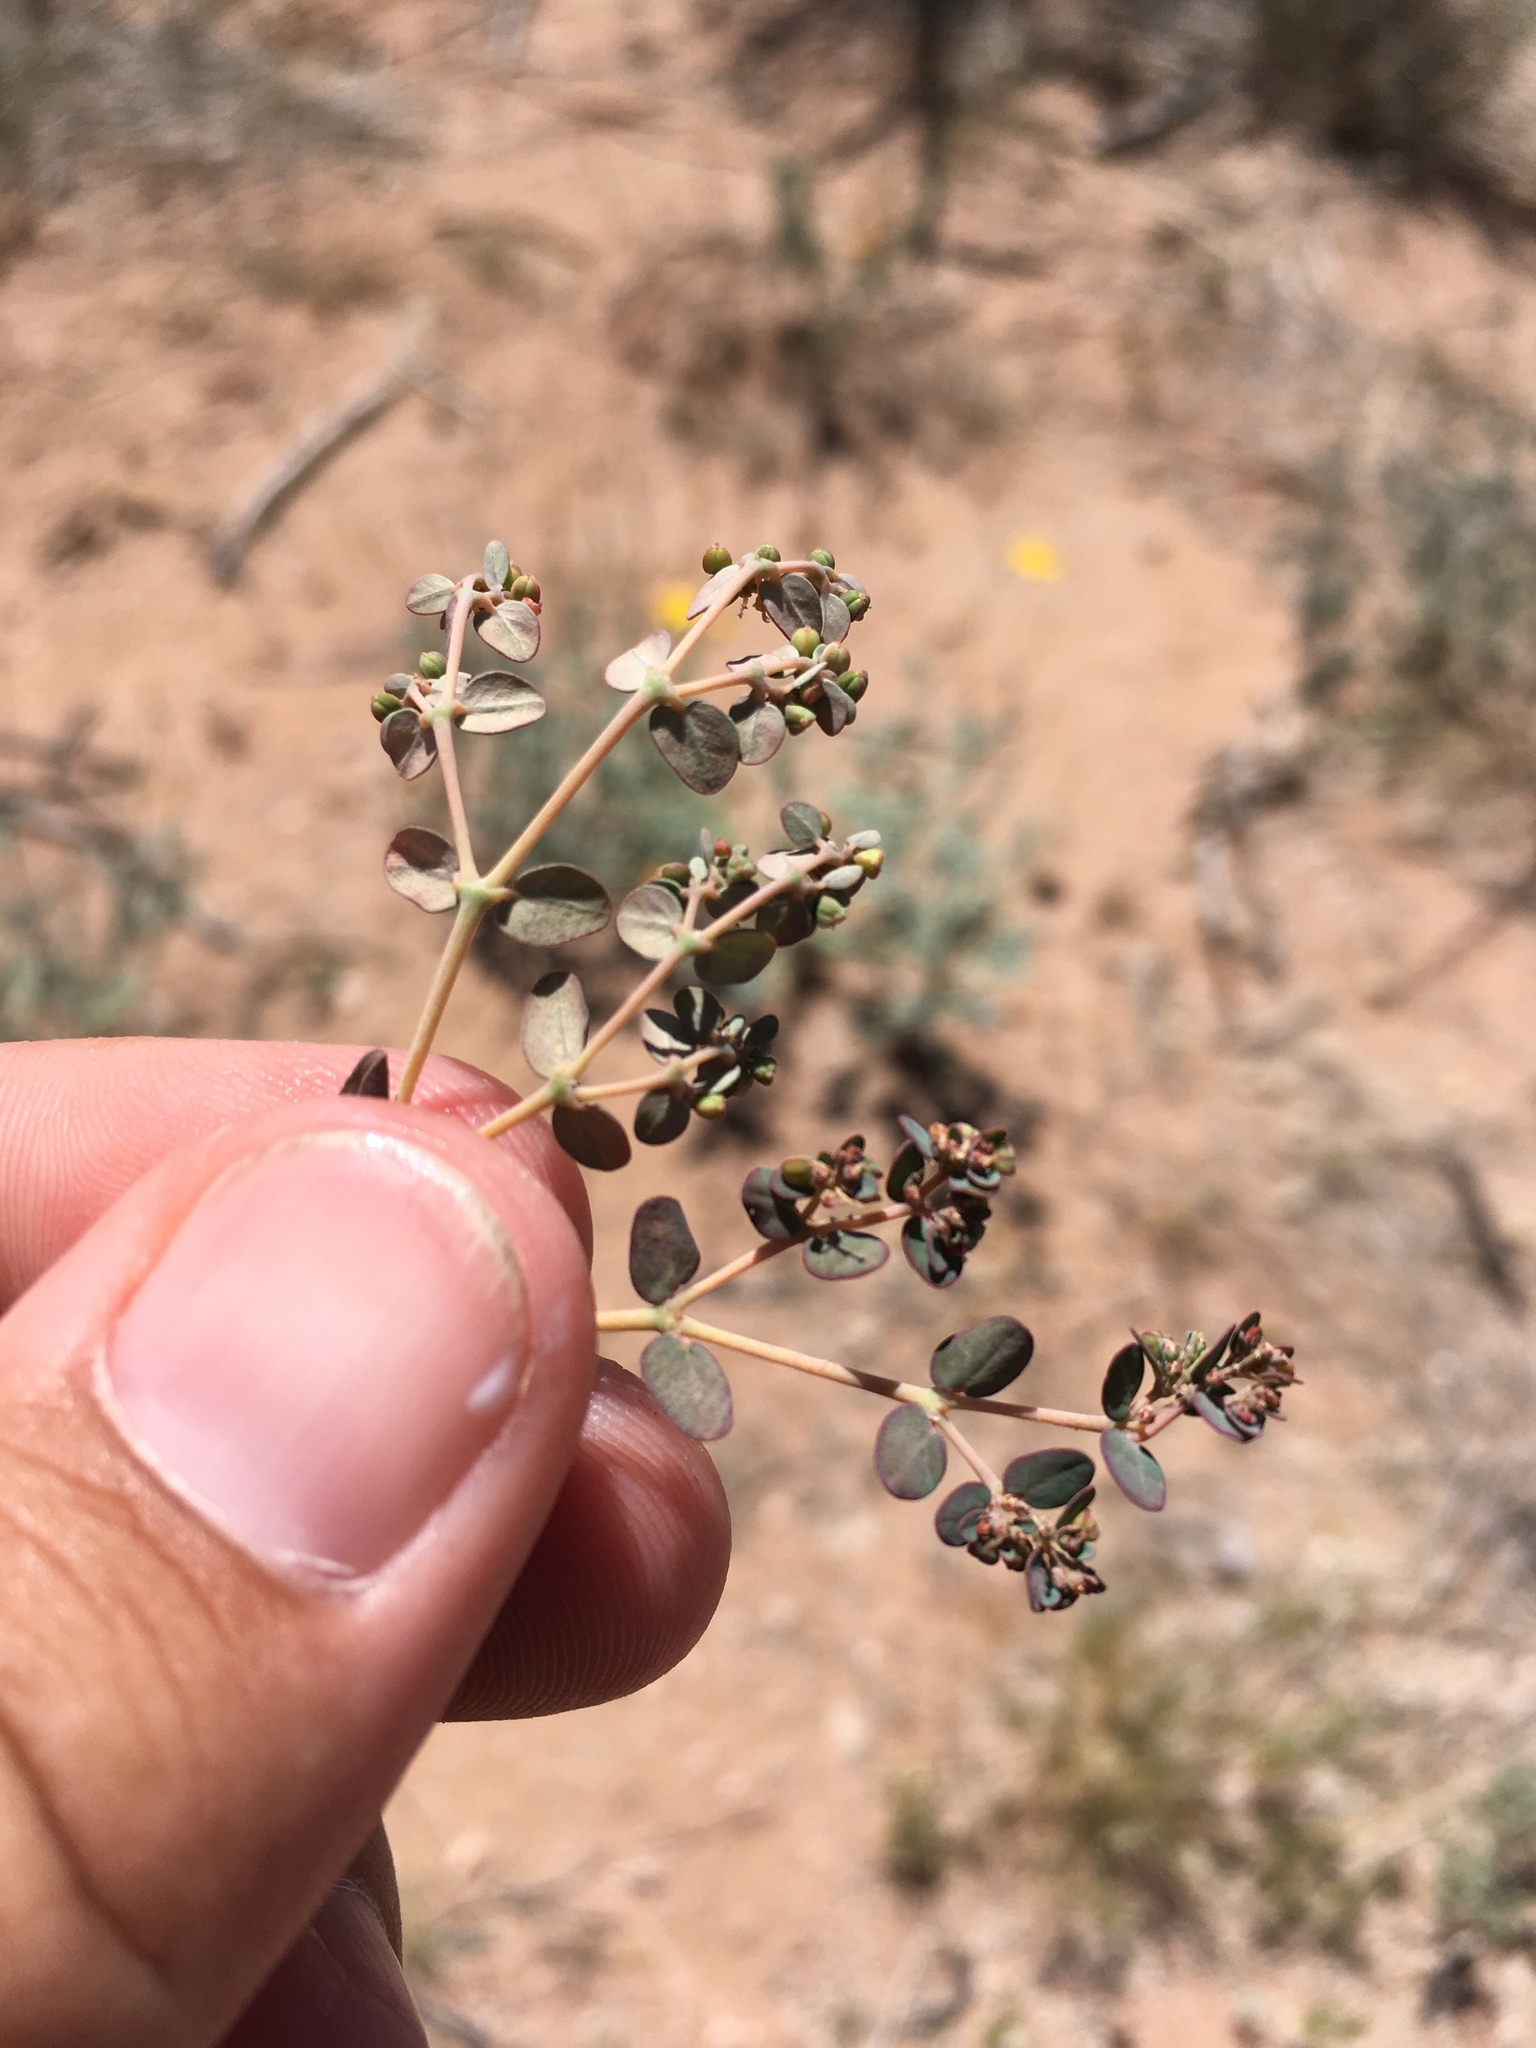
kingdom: Plantae
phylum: Tracheophyta
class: Magnoliopsida
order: Malpighiales
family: Euphorbiaceae
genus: Euphorbia
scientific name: Euphorbia micromera
